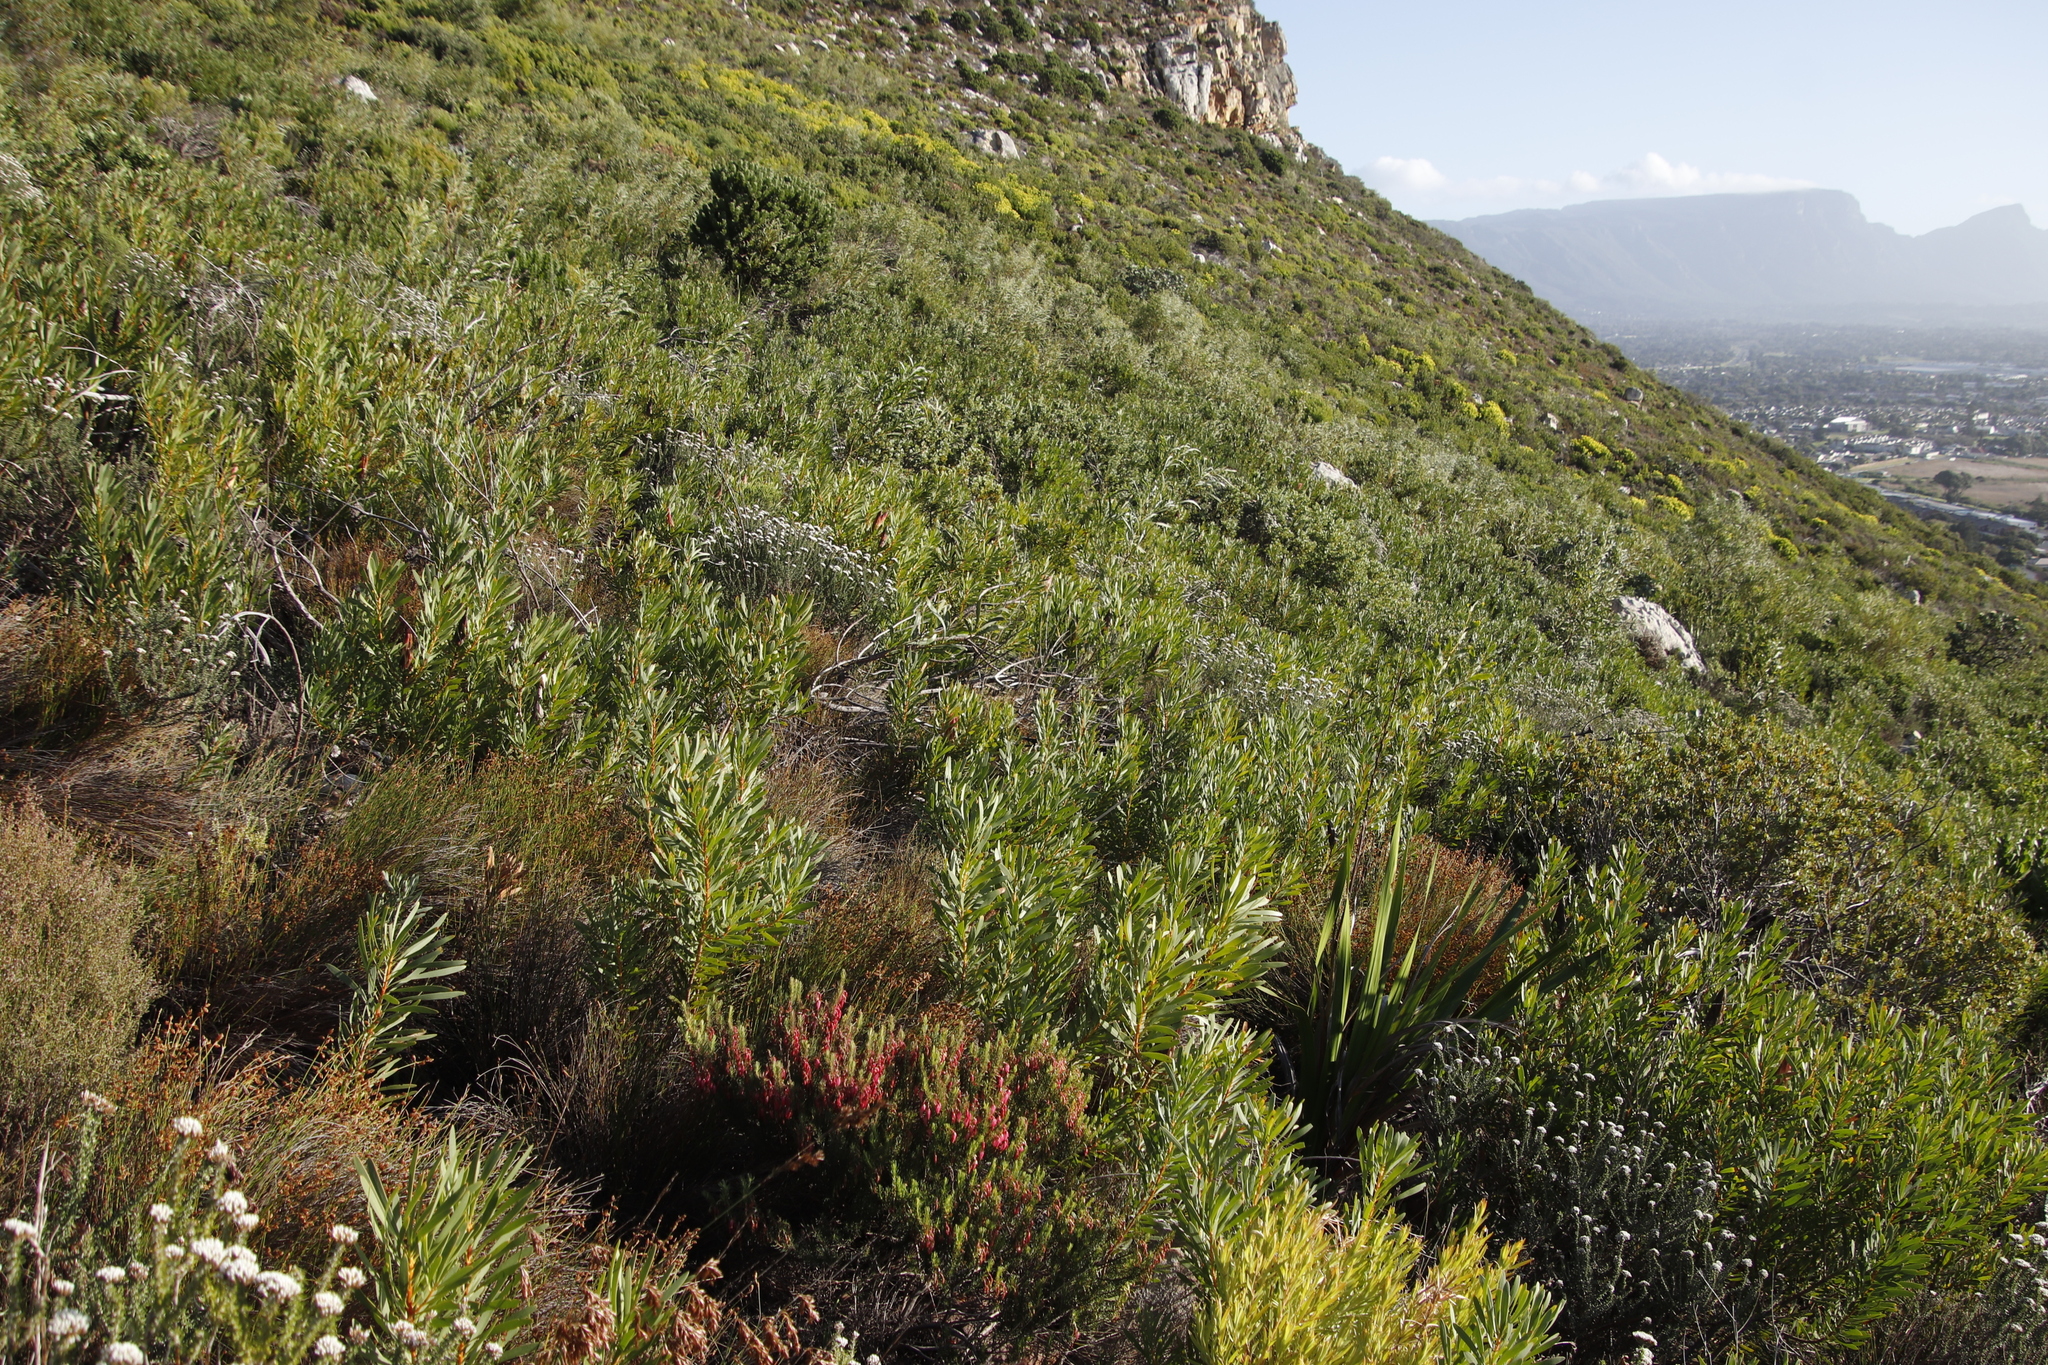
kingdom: Plantae
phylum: Tracheophyta
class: Magnoliopsida
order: Proteales
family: Proteaceae
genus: Protea
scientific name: Protea repens
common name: Sugarbush
